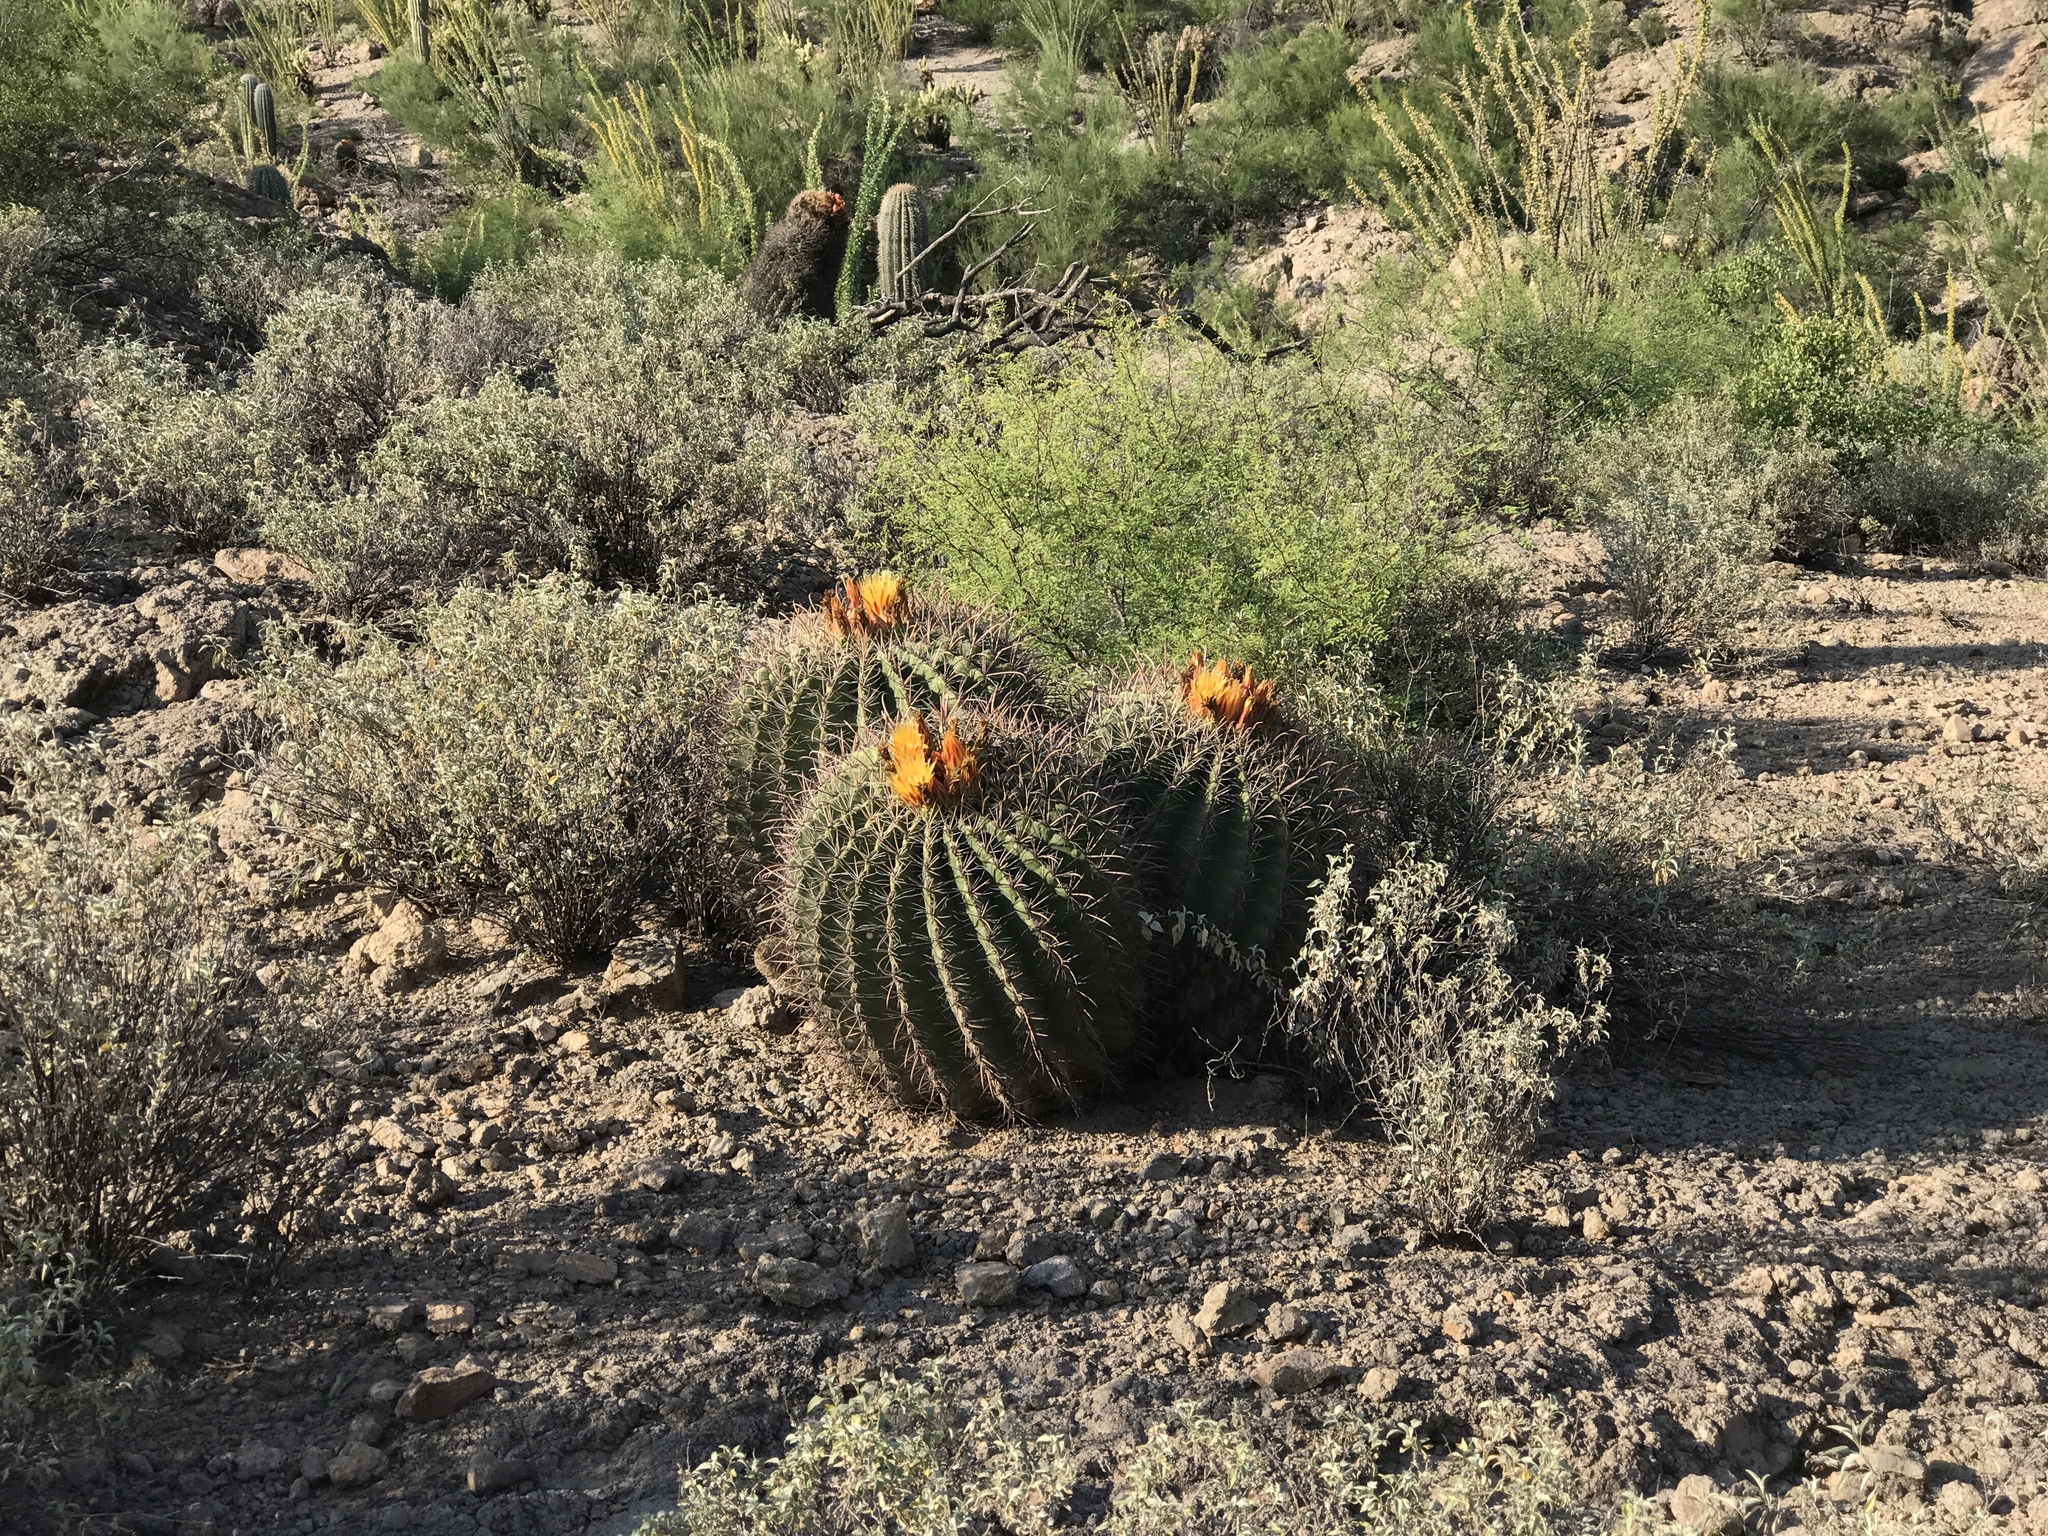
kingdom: Plantae
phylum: Tracheophyta
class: Magnoliopsida
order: Caryophyllales
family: Cactaceae
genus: Ferocactus
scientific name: Ferocactus wislizeni
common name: Candy barrel cactus
